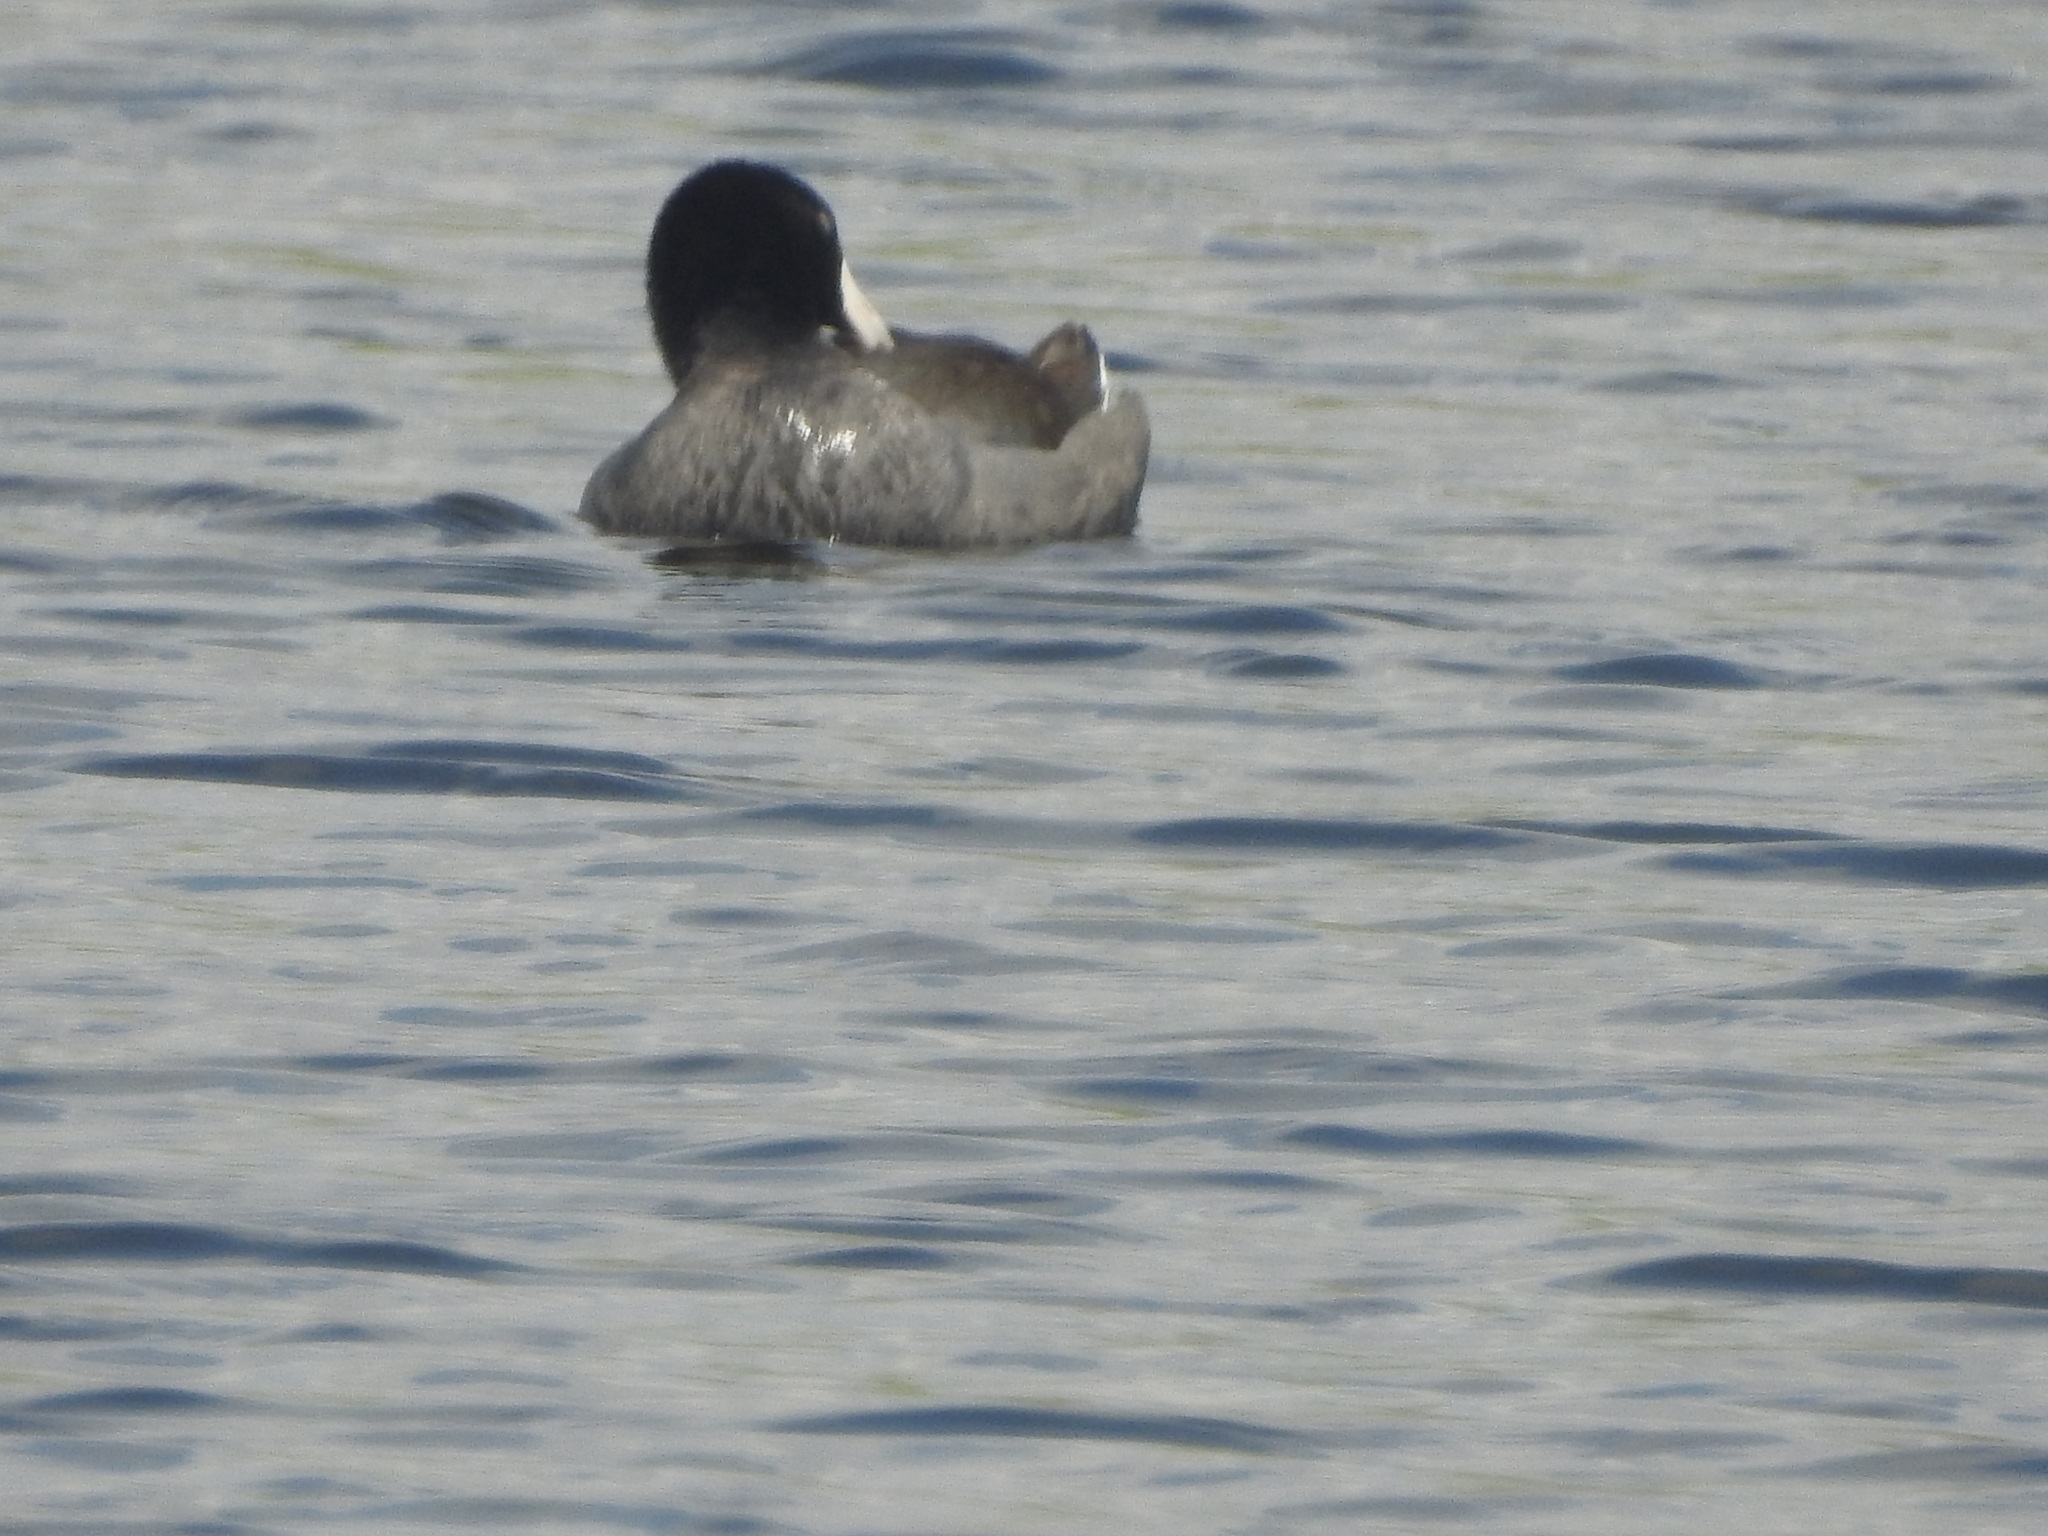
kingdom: Animalia
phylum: Chordata
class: Aves
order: Gruiformes
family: Rallidae
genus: Fulica
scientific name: Fulica americana
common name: American coot
